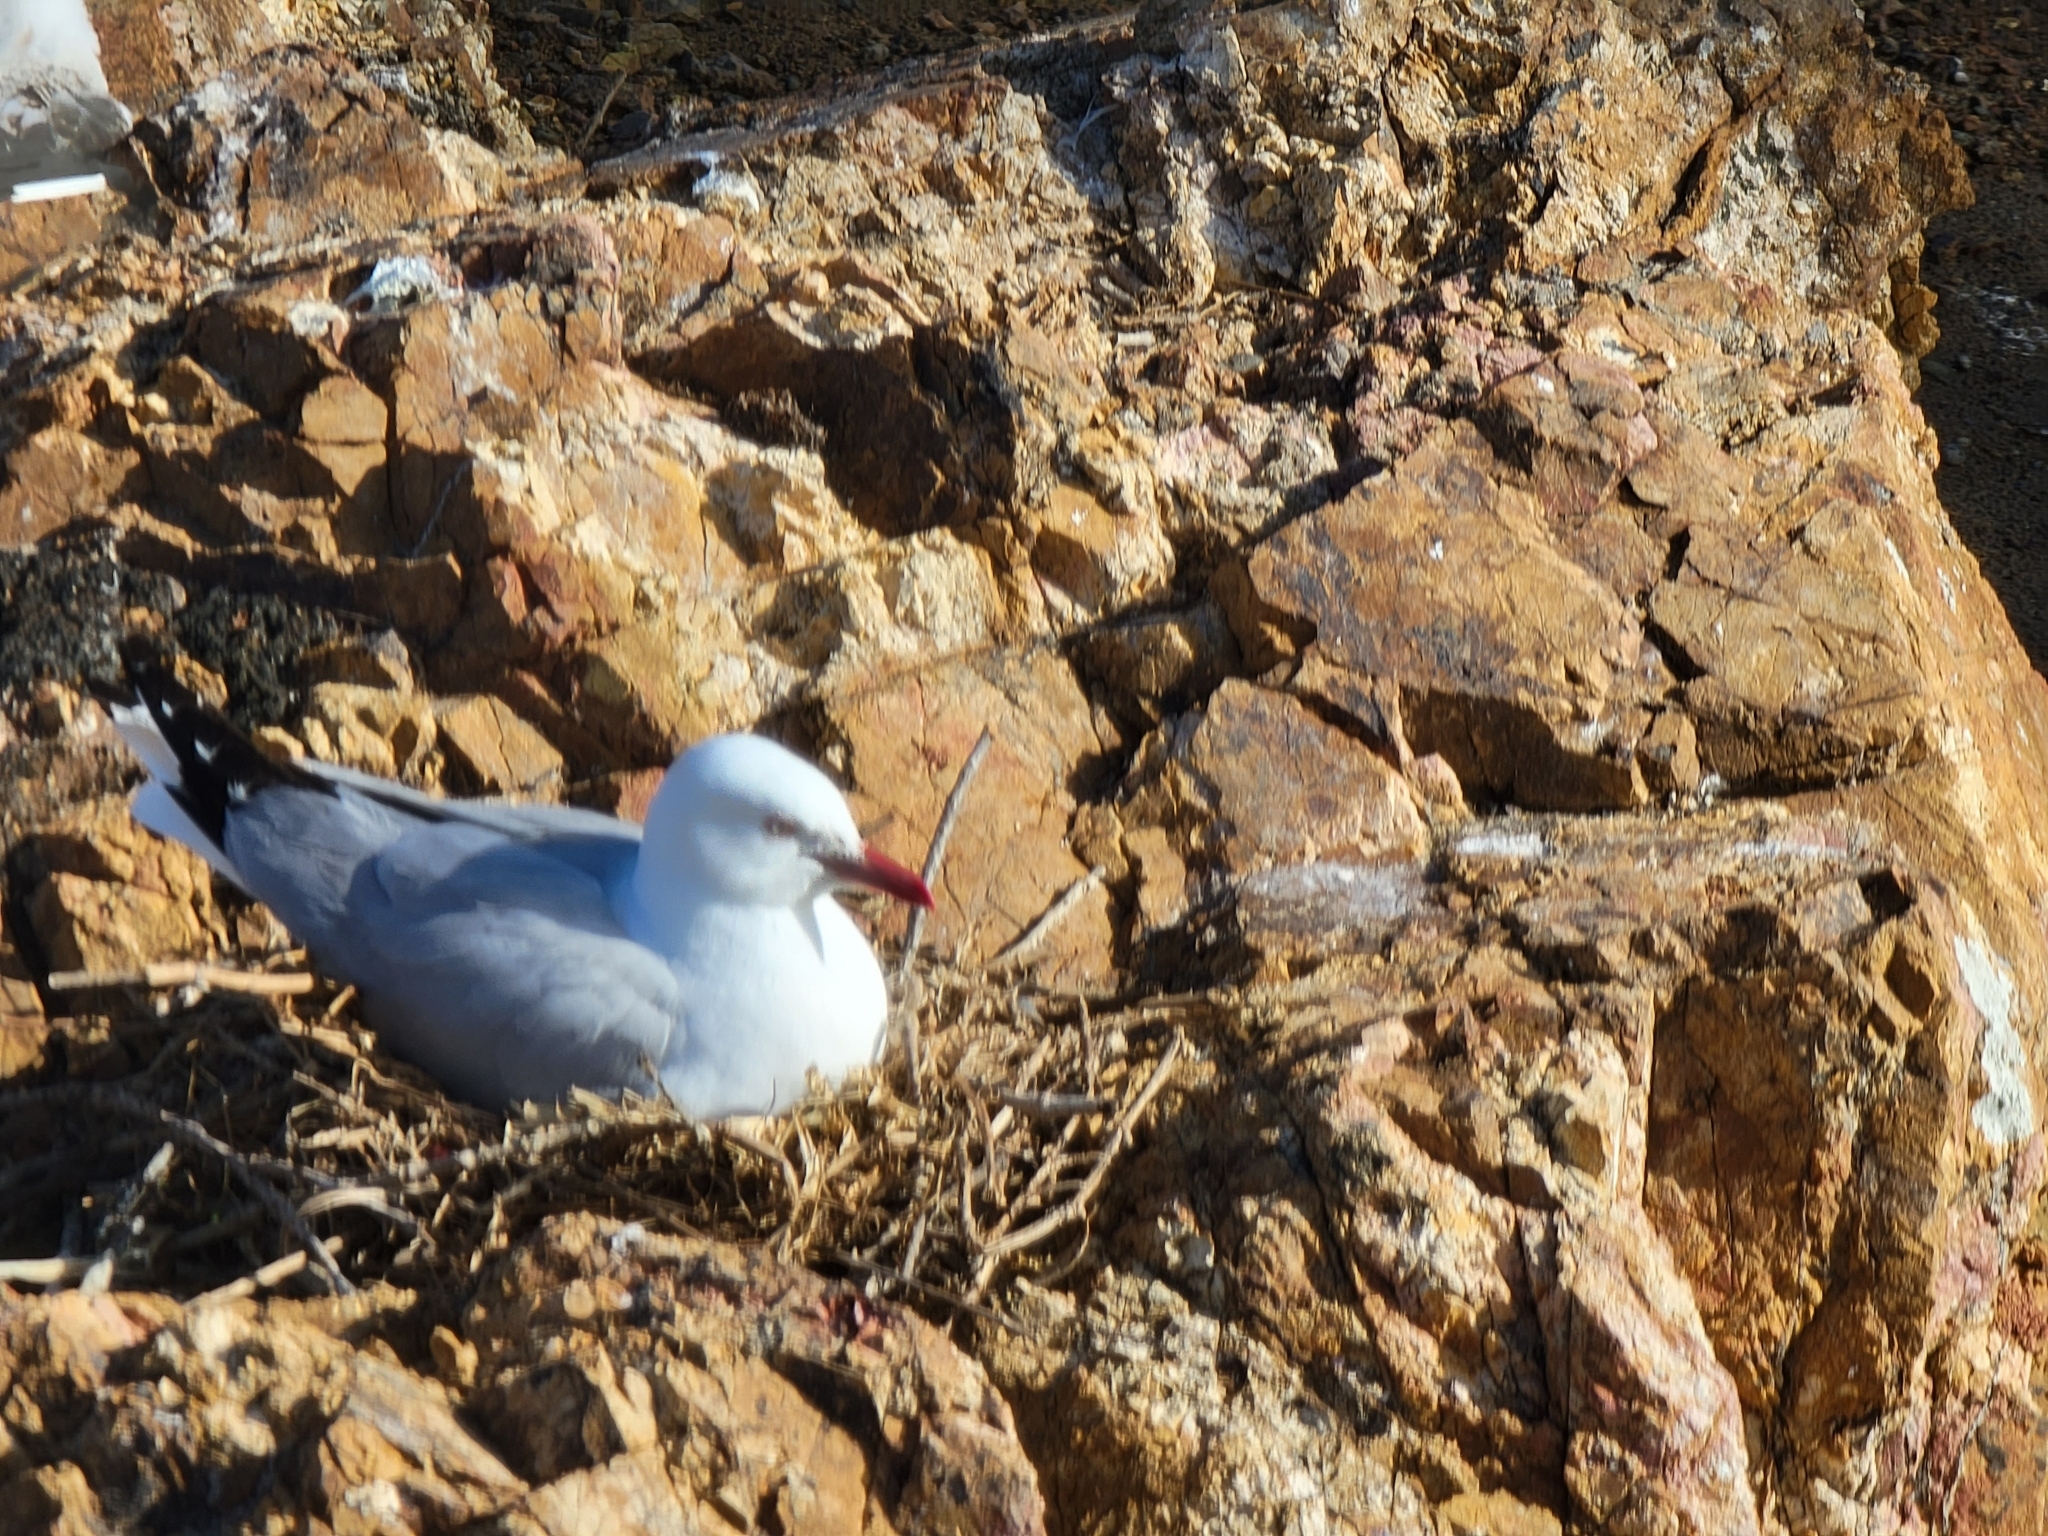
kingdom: Animalia
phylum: Chordata
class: Aves
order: Charadriiformes
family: Laridae
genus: Chroicocephalus
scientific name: Chroicocephalus novaehollandiae
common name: Silver gull
